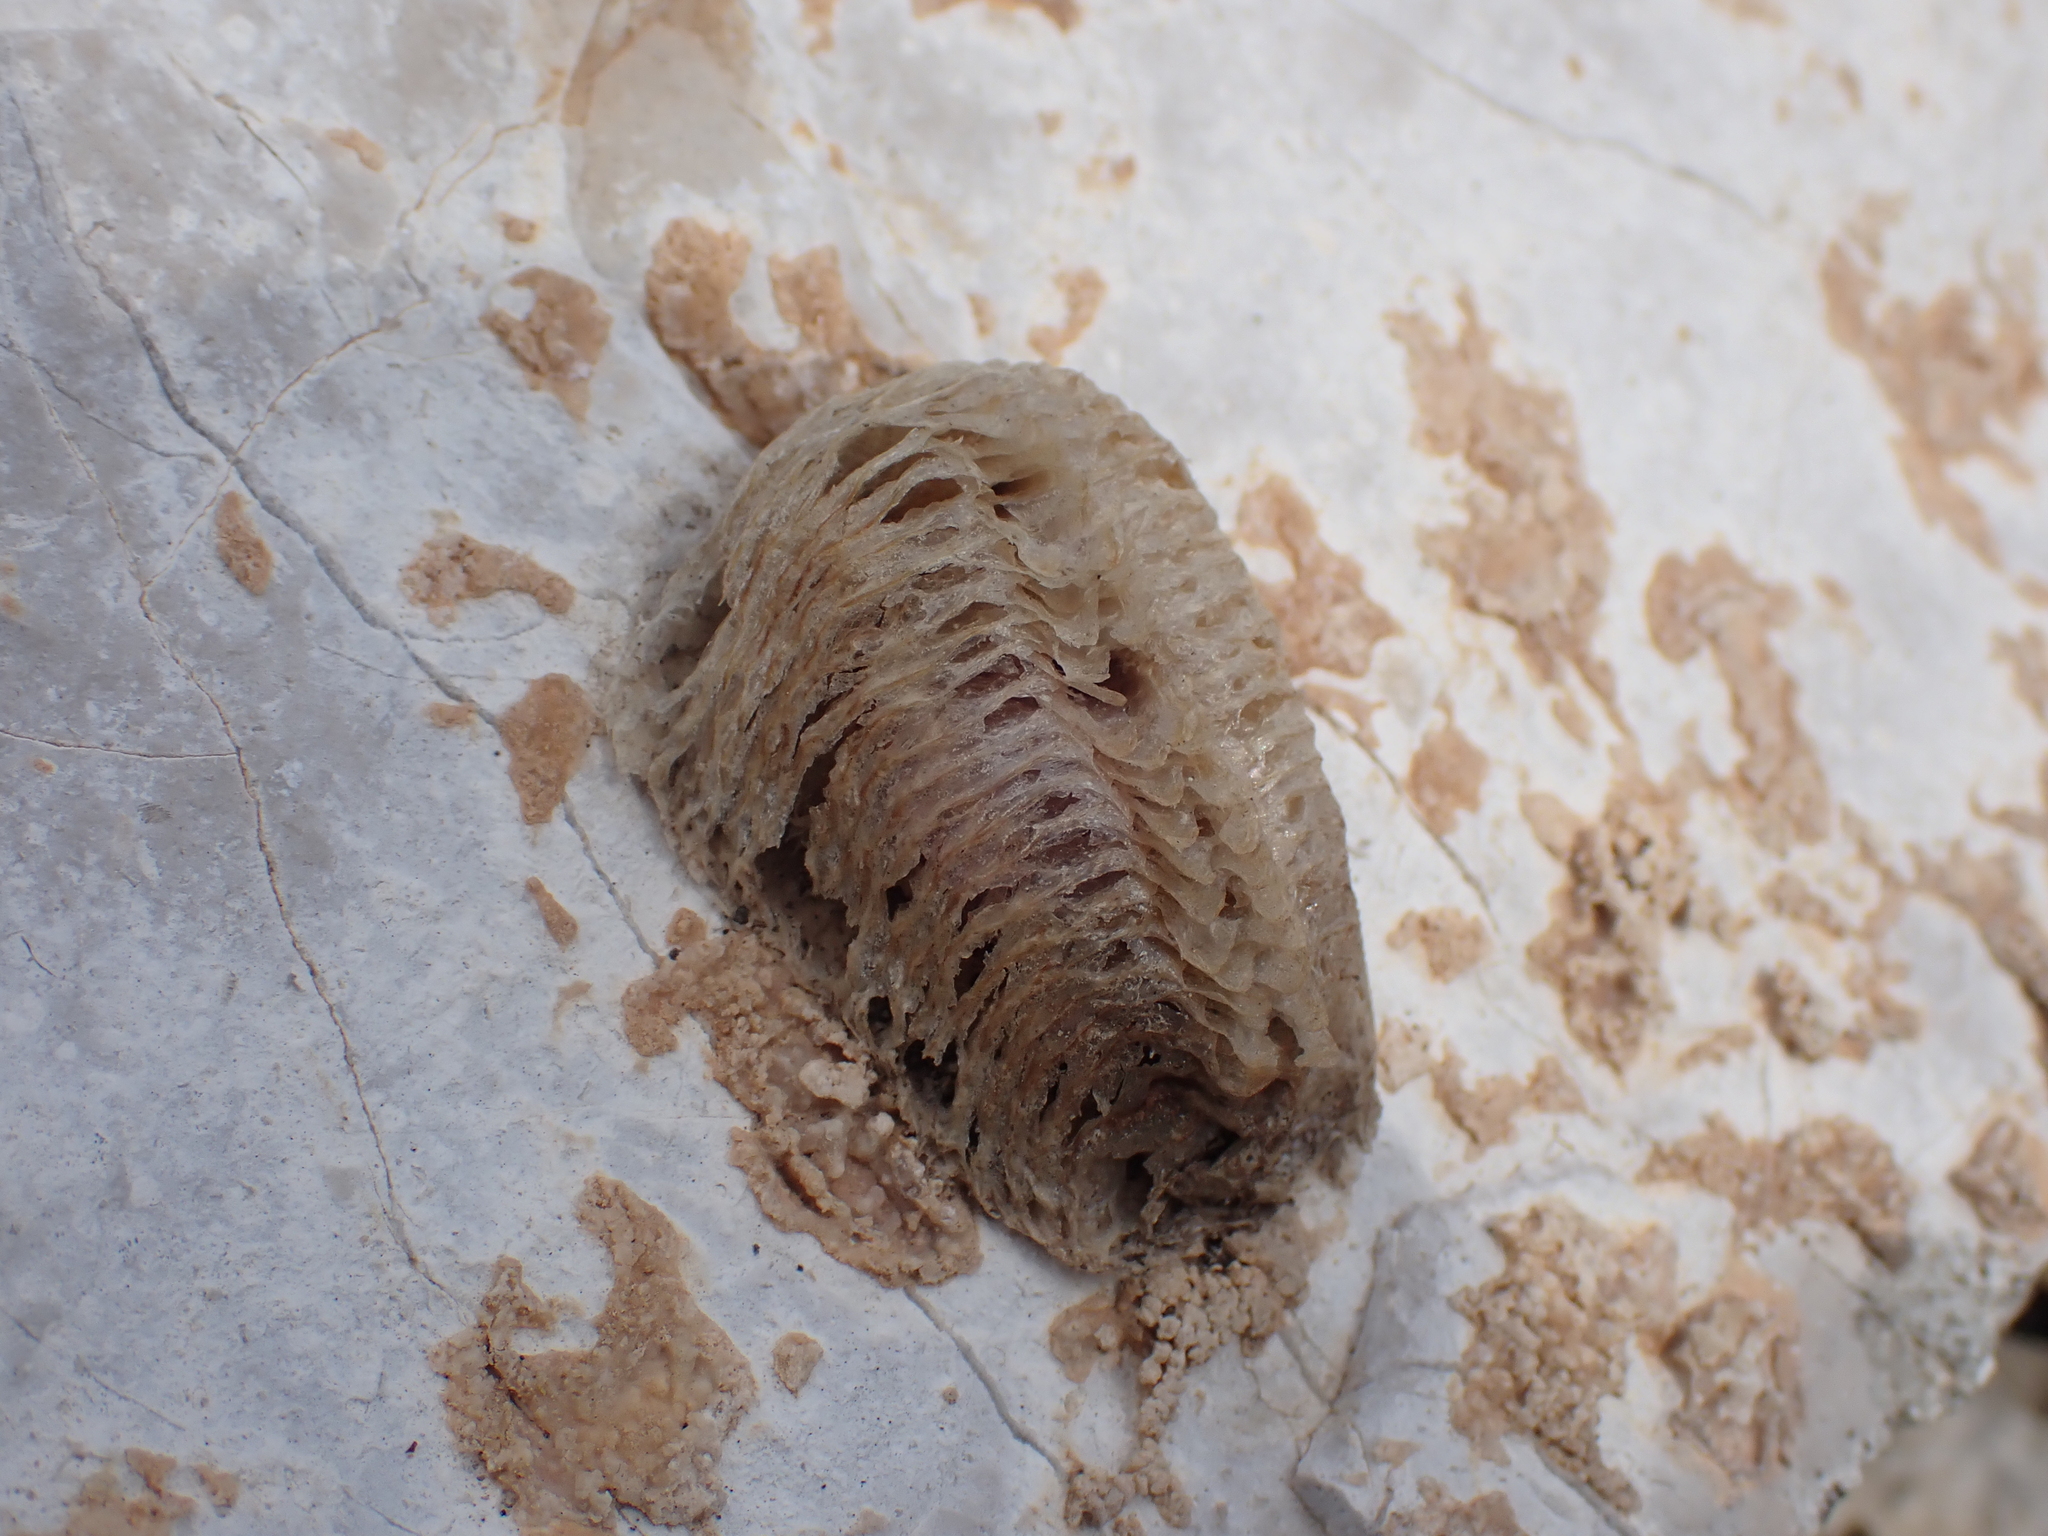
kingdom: Animalia
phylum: Arthropoda
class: Insecta
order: Mantodea
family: Mantidae
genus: Mantis
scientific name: Mantis religiosa
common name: Praying mantis
